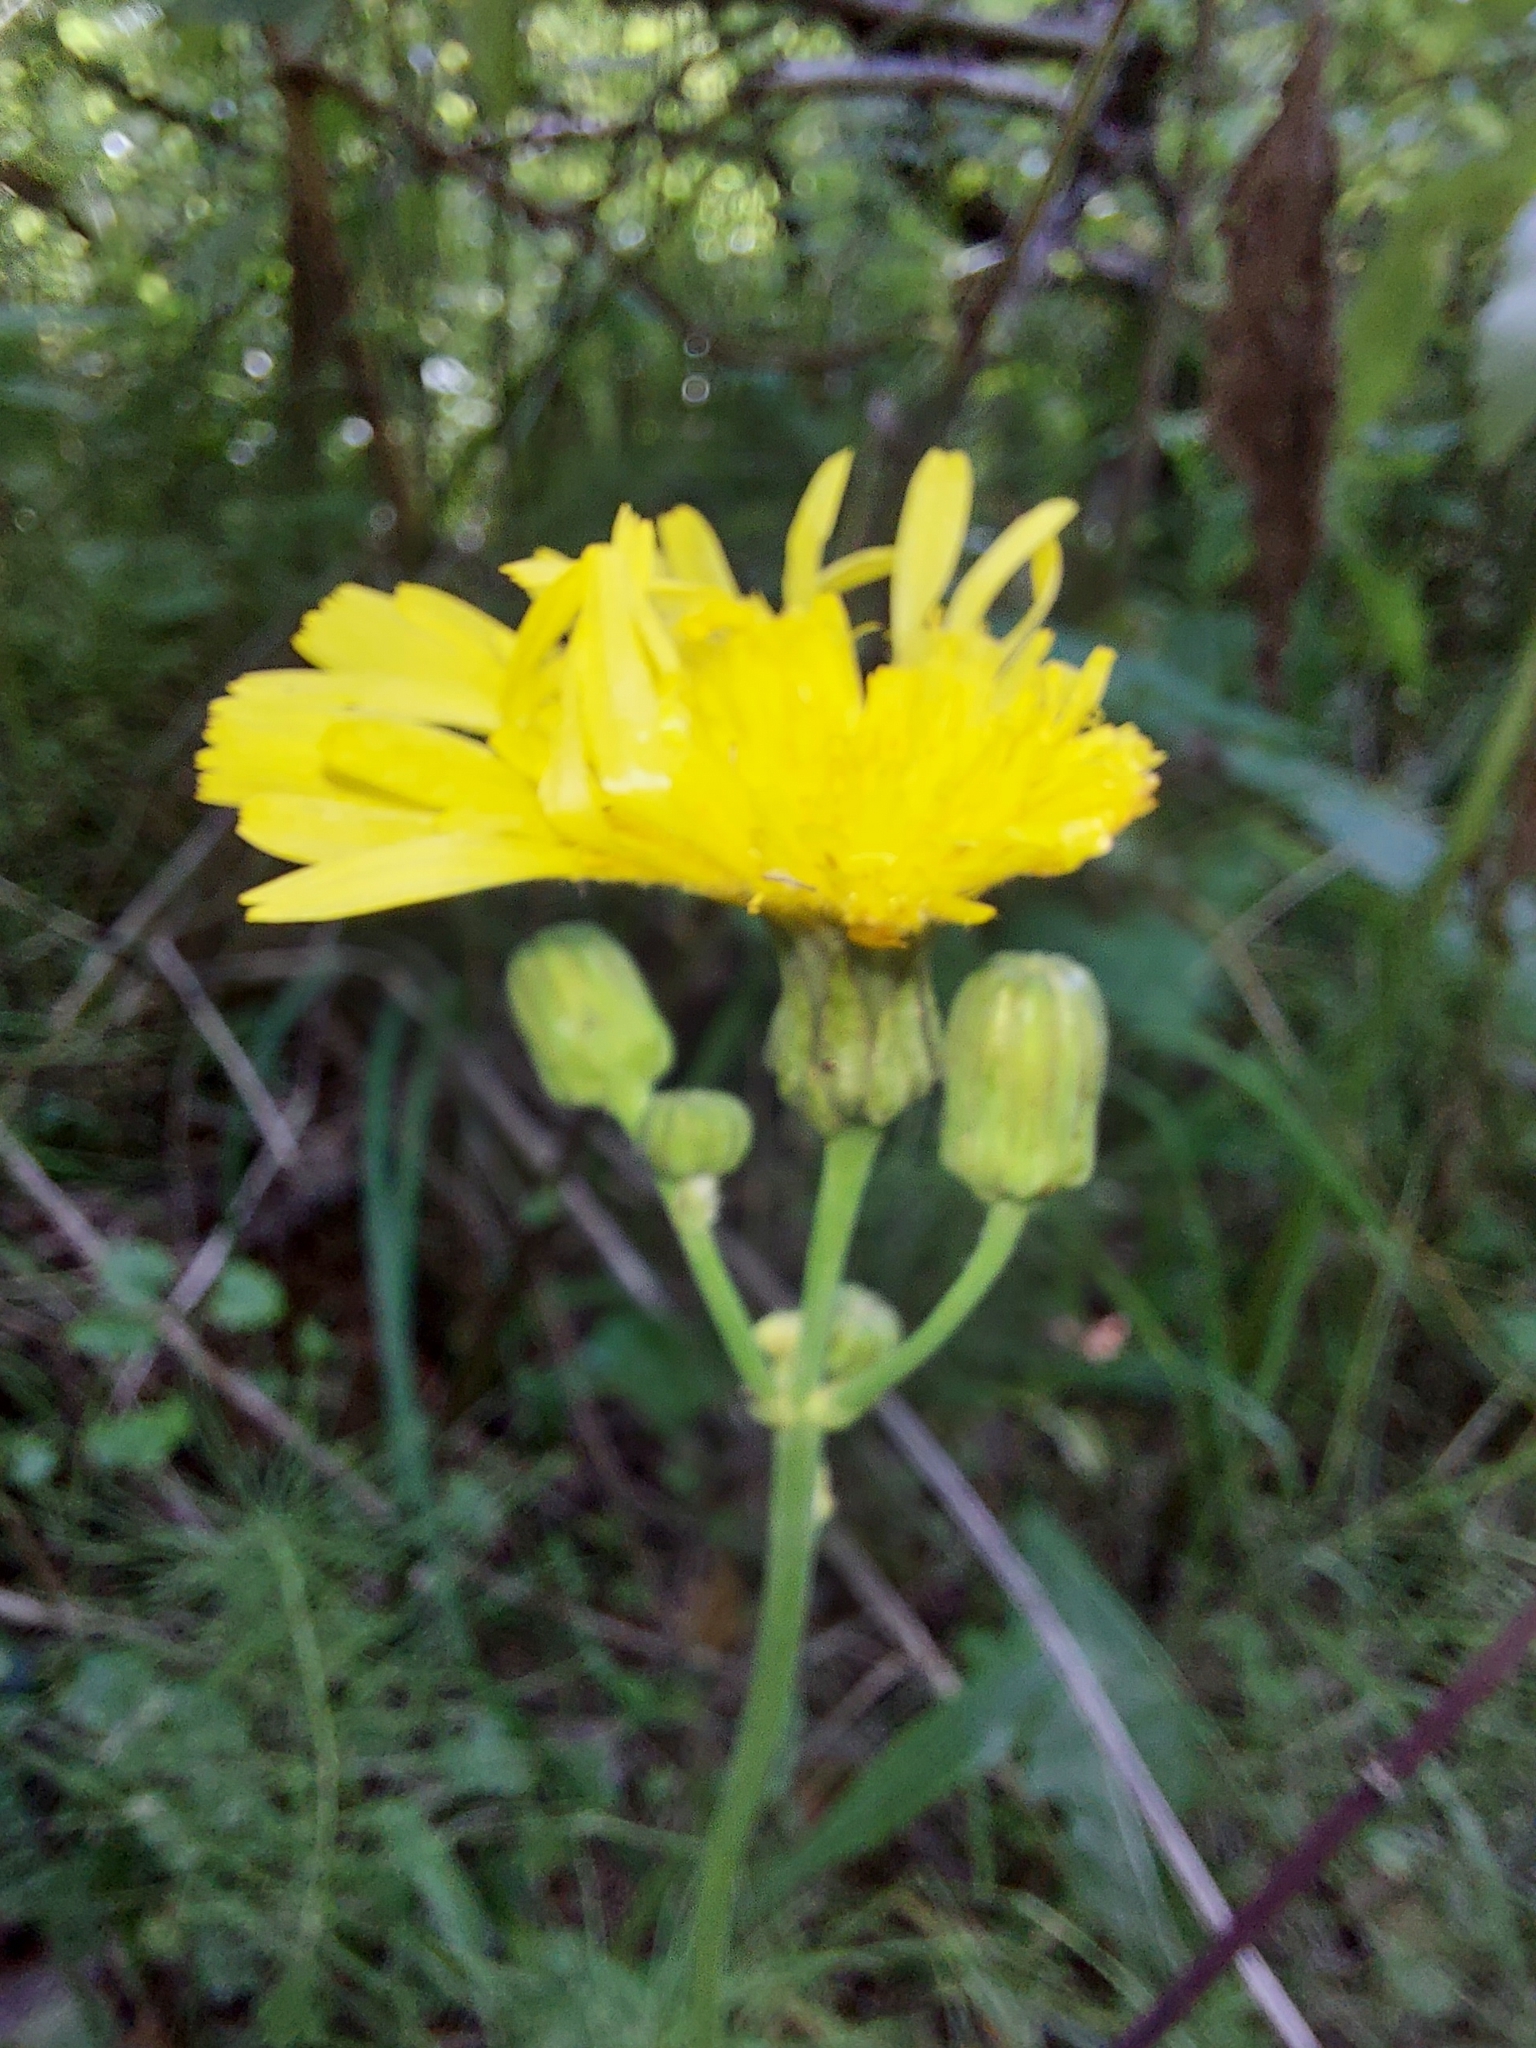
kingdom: Plantae
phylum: Tracheophyta
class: Magnoliopsida
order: Asterales
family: Asteraceae
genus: Sonchus
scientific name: Sonchus arvensis
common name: Perennial sow-thistle
